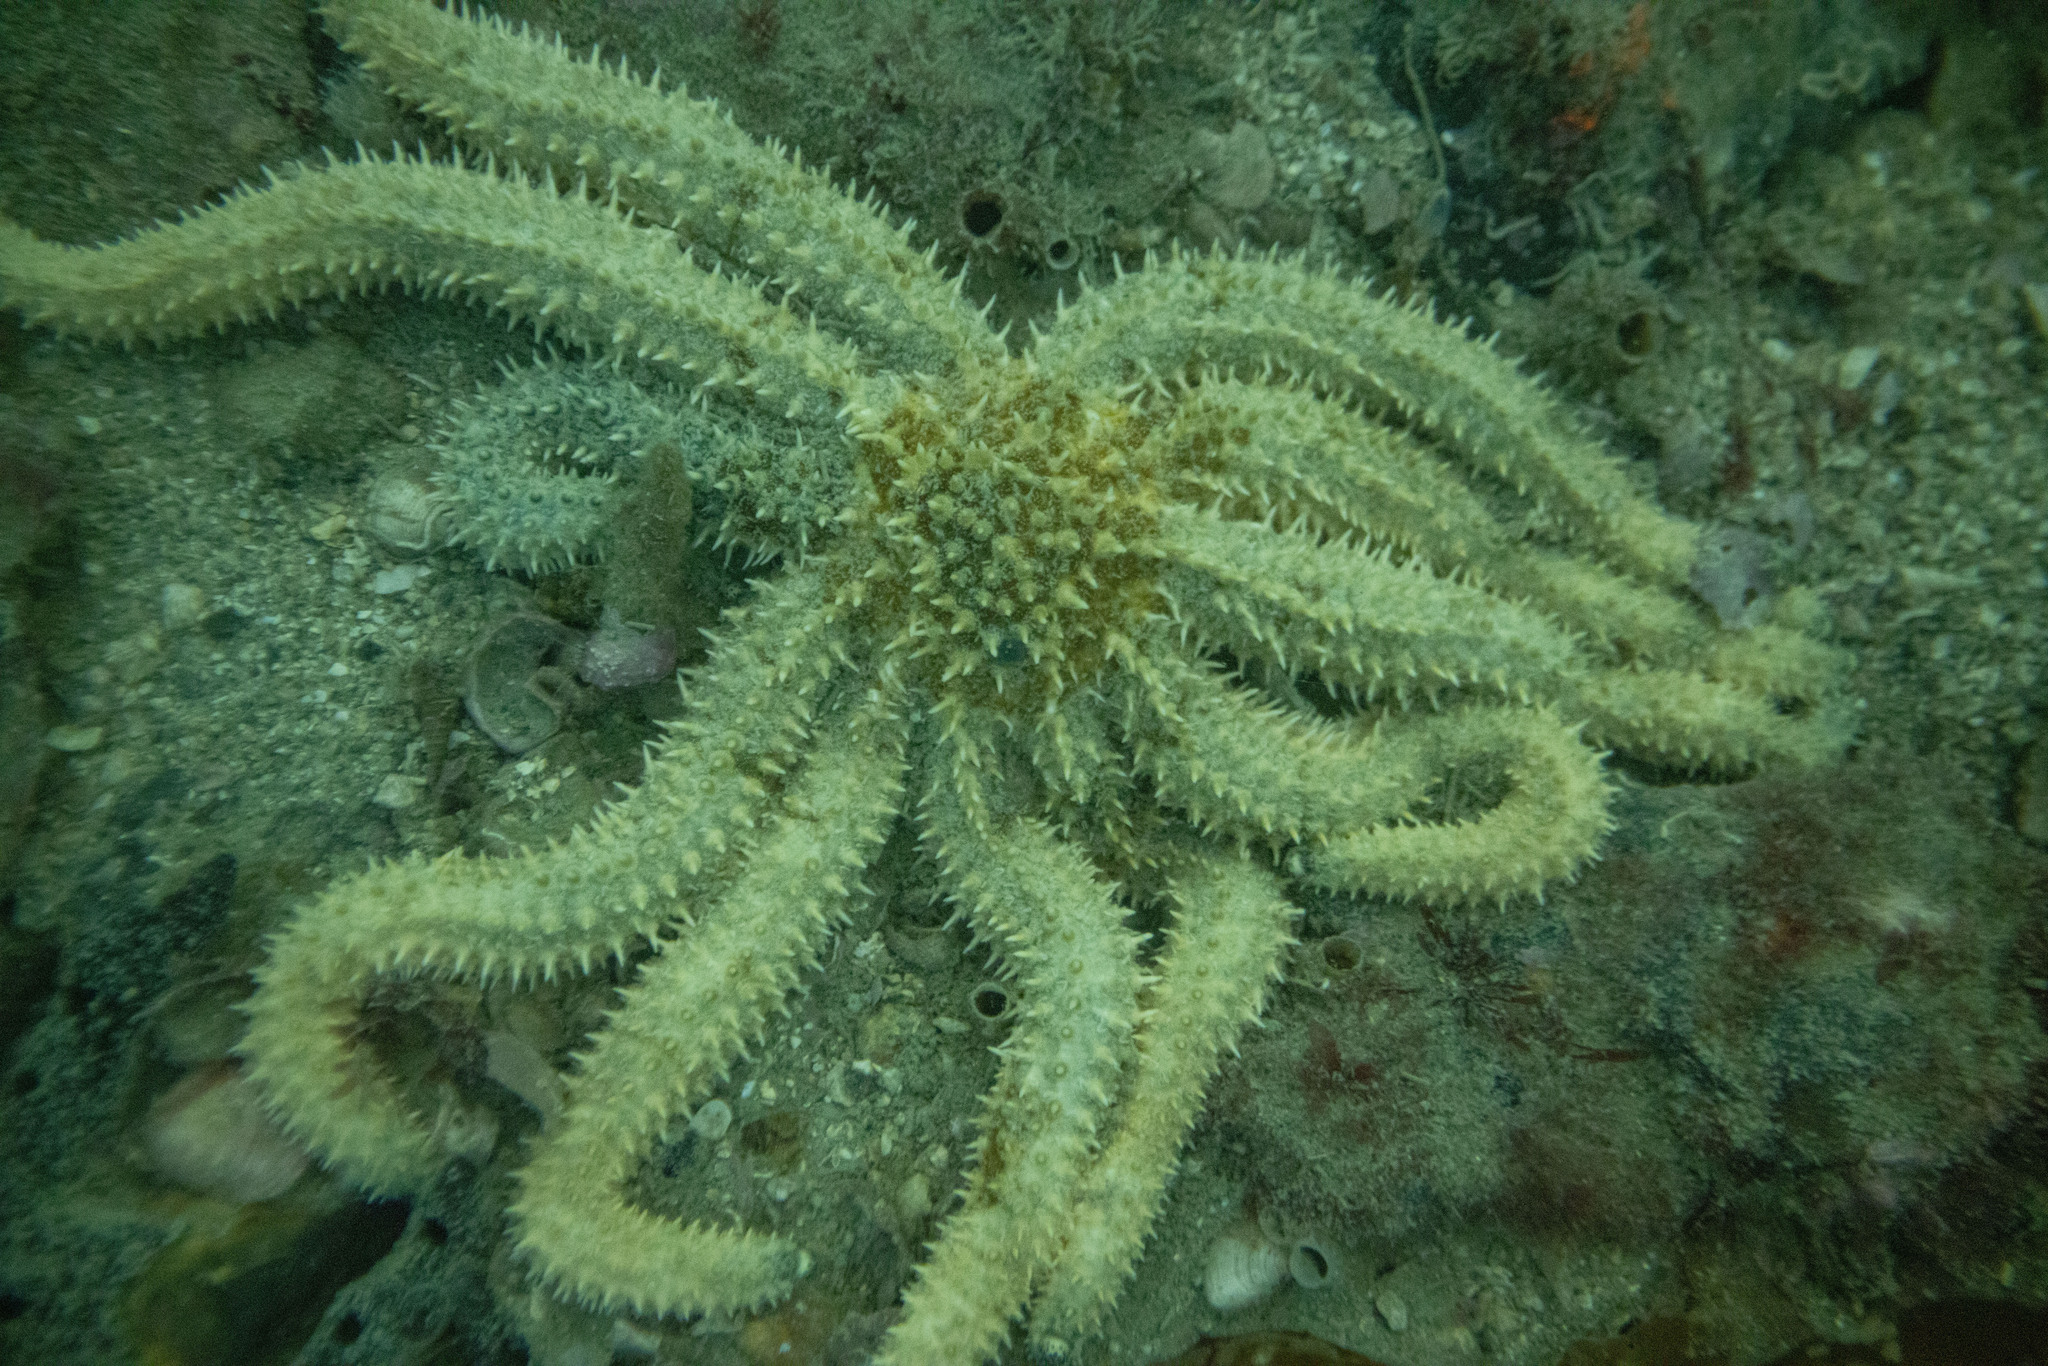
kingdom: Animalia
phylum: Echinodermata
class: Asteroidea
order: Forcipulatida
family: Asteriidae
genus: Coscinasterias
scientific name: Coscinasterias muricata
